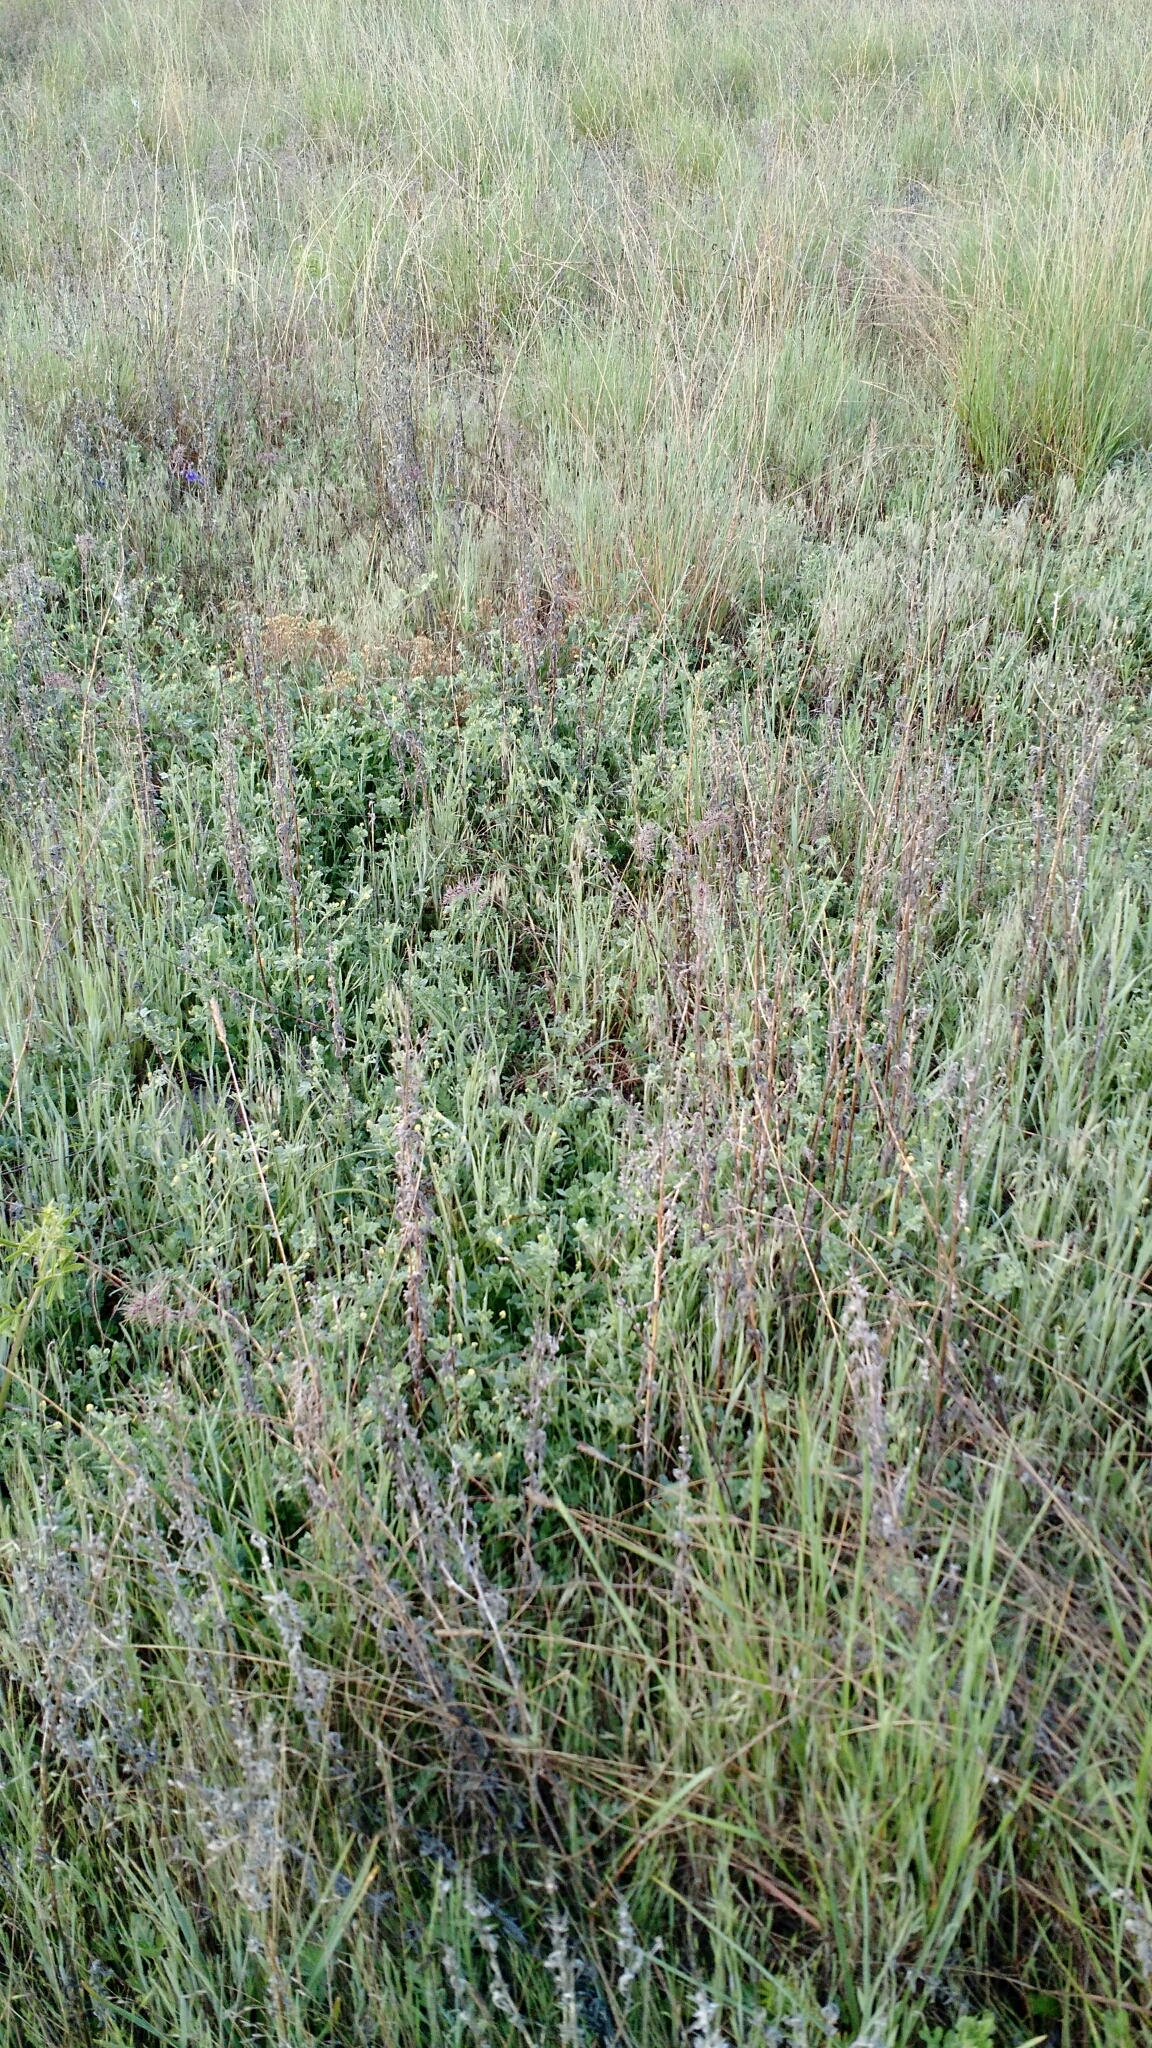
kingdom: Plantae
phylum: Tracheophyta
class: Magnoliopsida
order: Fabales
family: Fabaceae
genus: Medicago
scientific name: Medicago lupulina
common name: Black medick
